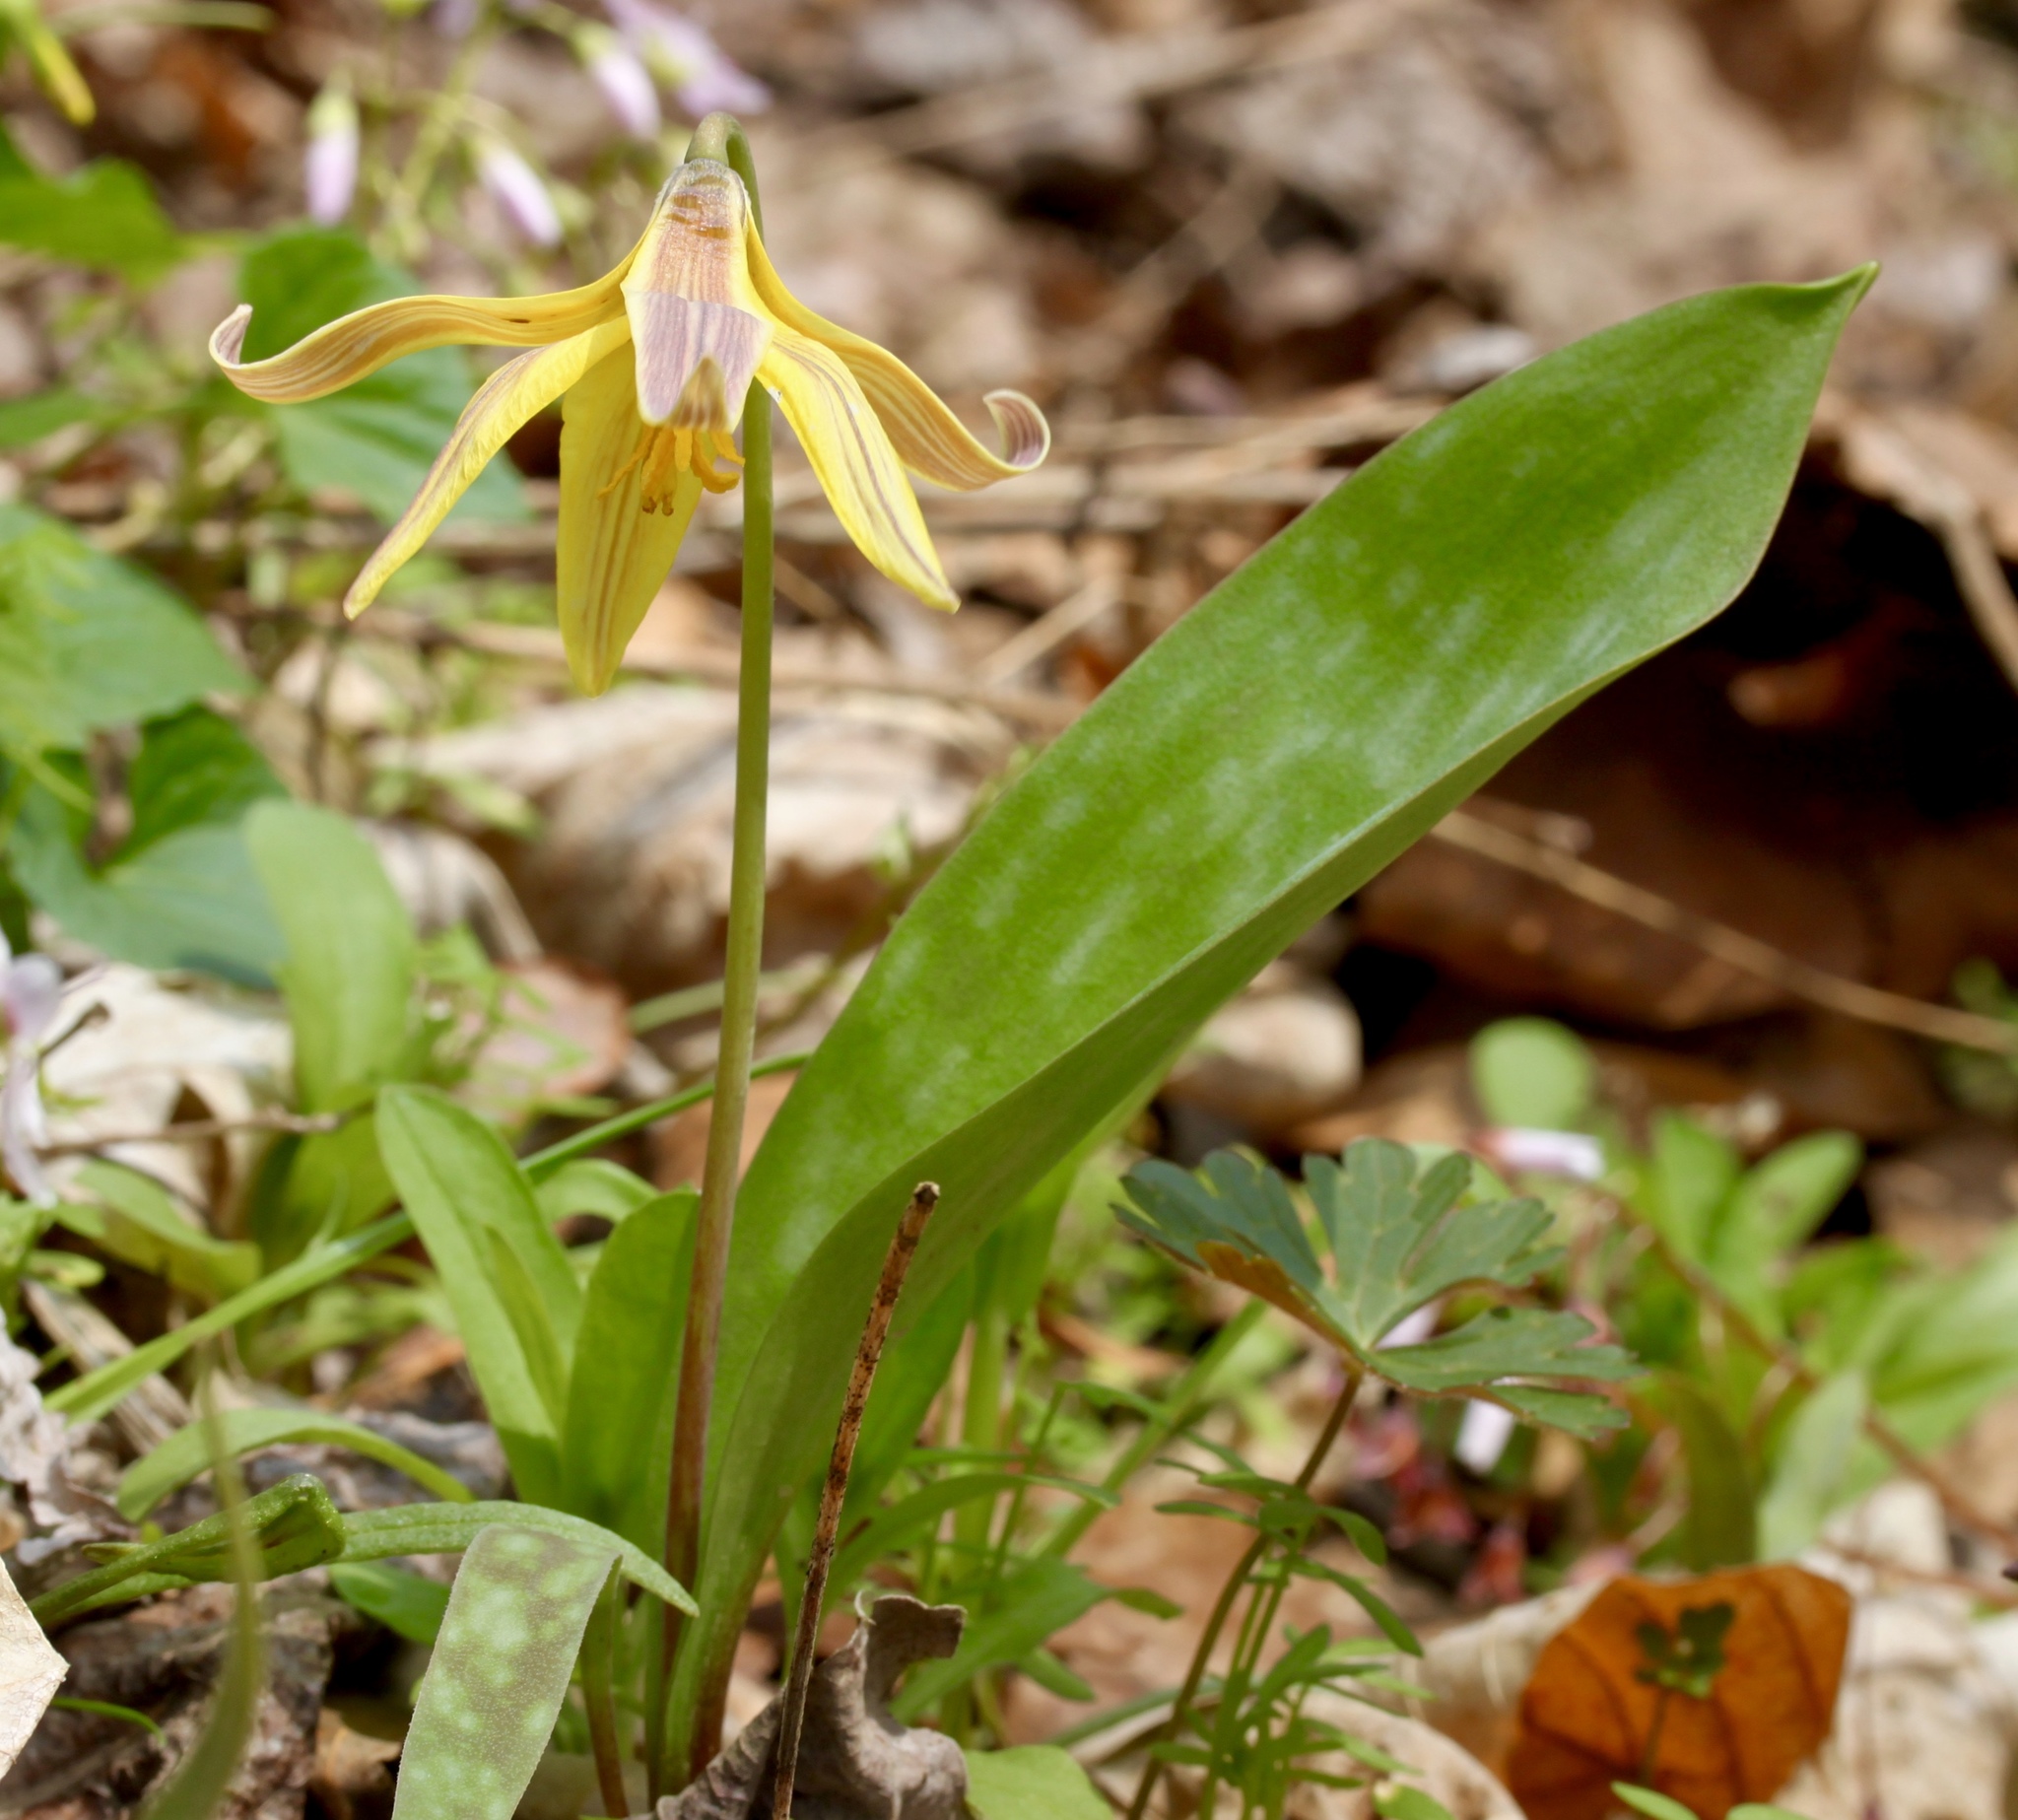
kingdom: Plantae
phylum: Tracheophyta
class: Liliopsida
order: Liliales
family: Liliaceae
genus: Erythronium
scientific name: Erythronium americanum
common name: Yellow adder's-tongue
